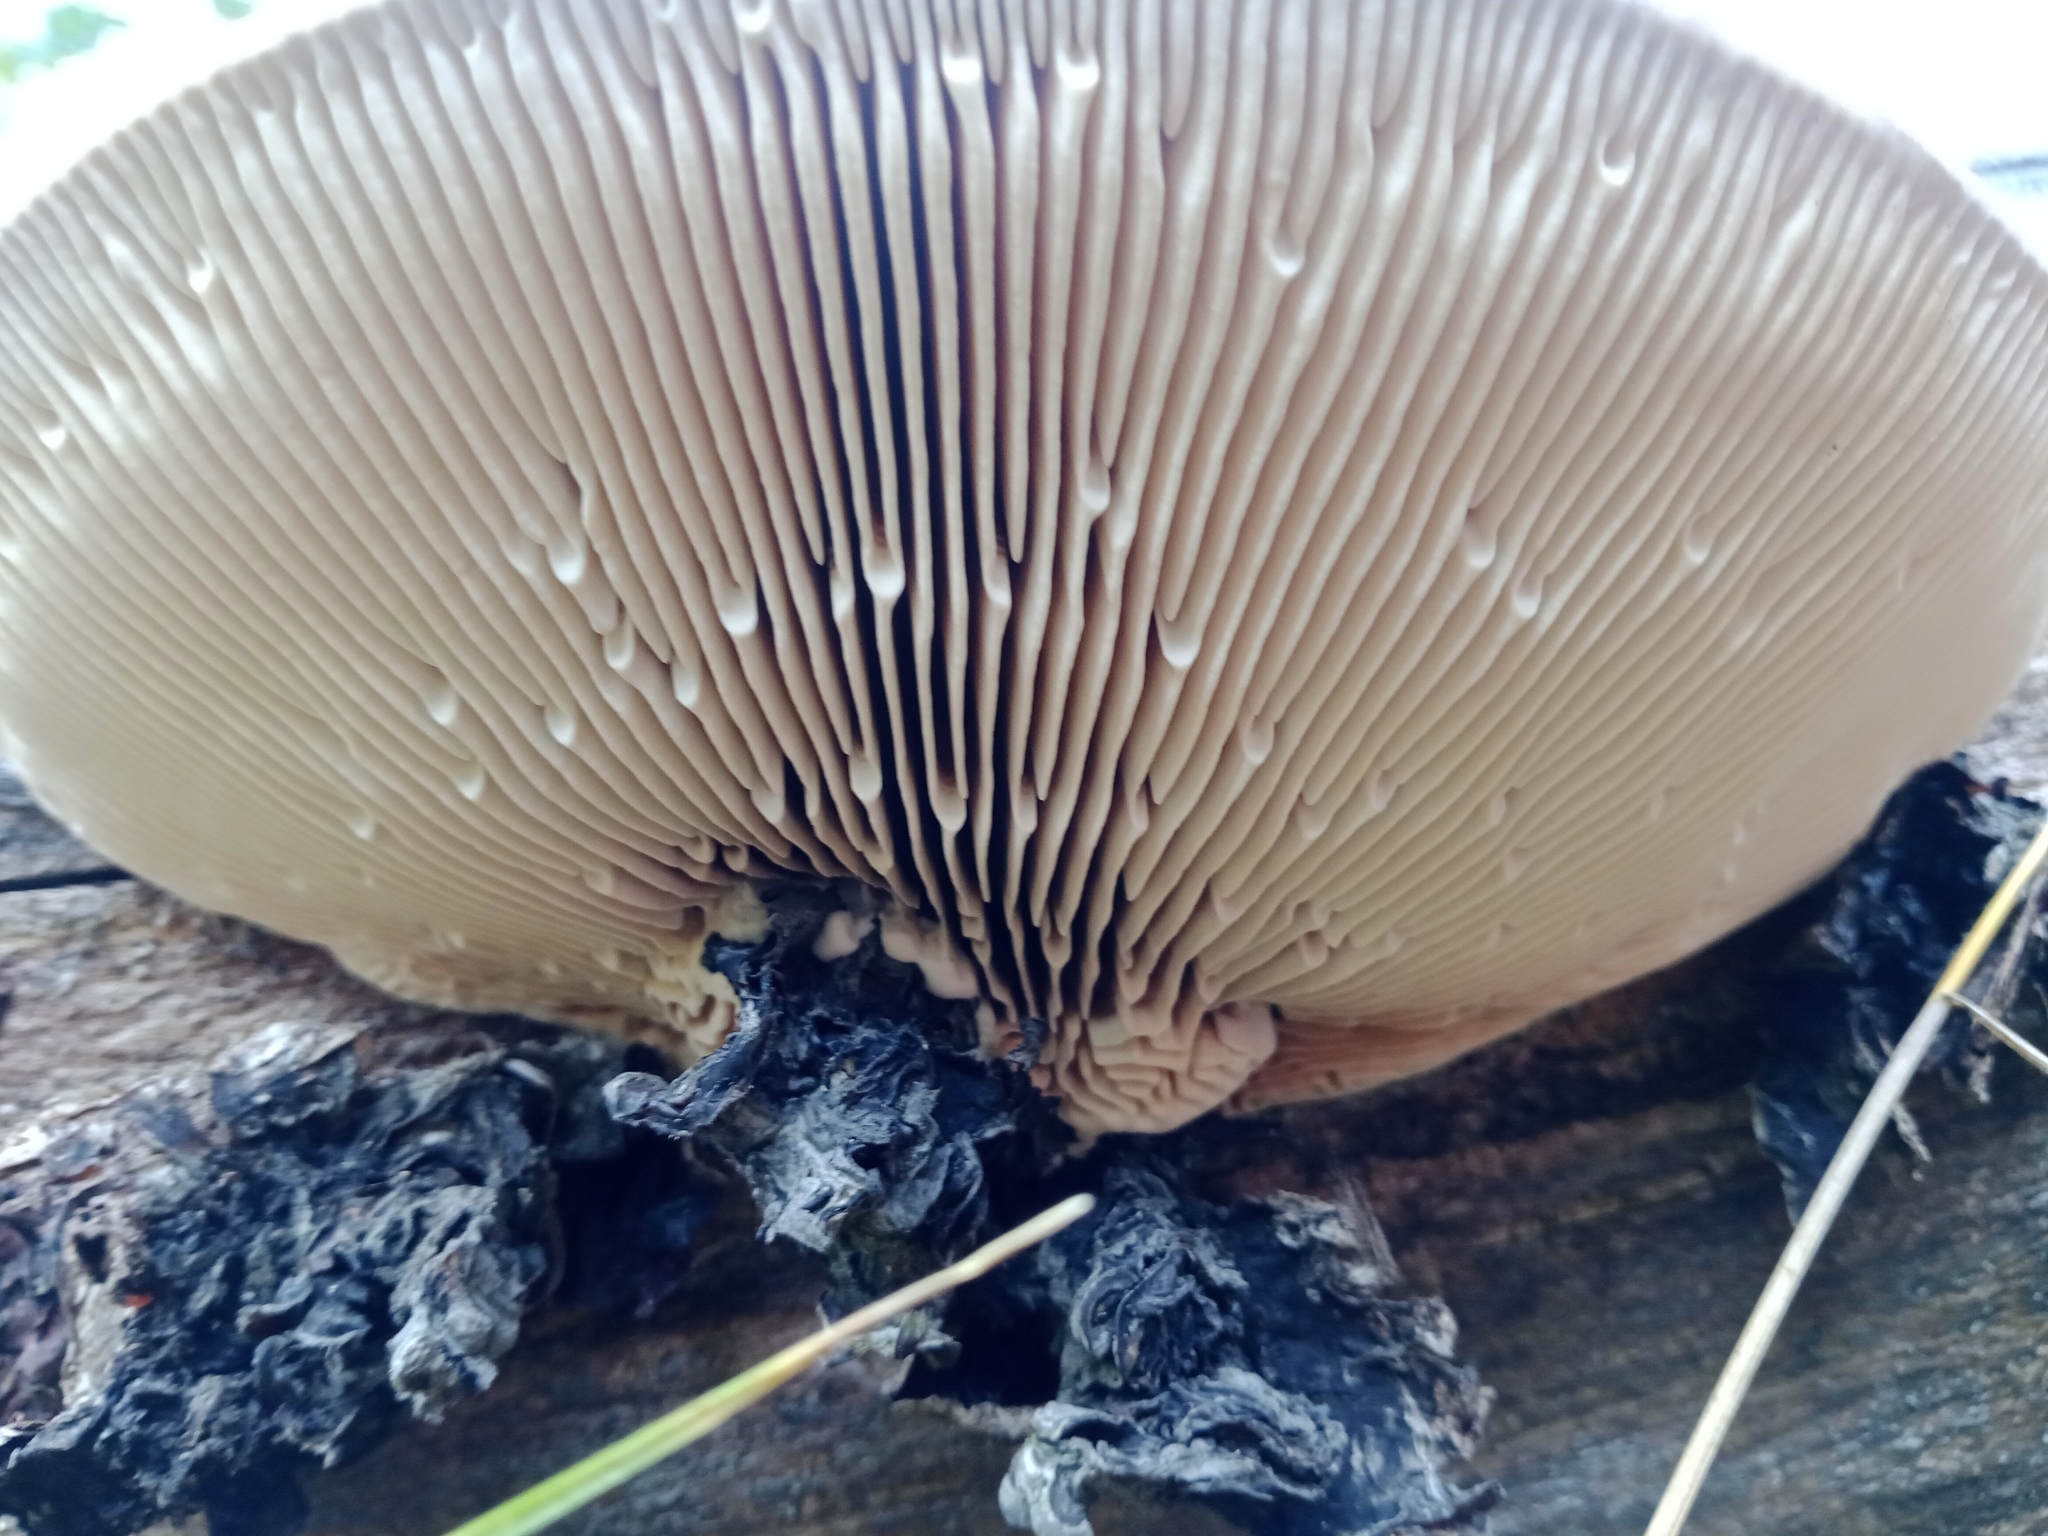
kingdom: Fungi
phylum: Basidiomycota
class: Agaricomycetes
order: Polyporales
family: Fomitopsidaceae
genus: Fomitopsis
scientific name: Fomitopsis
